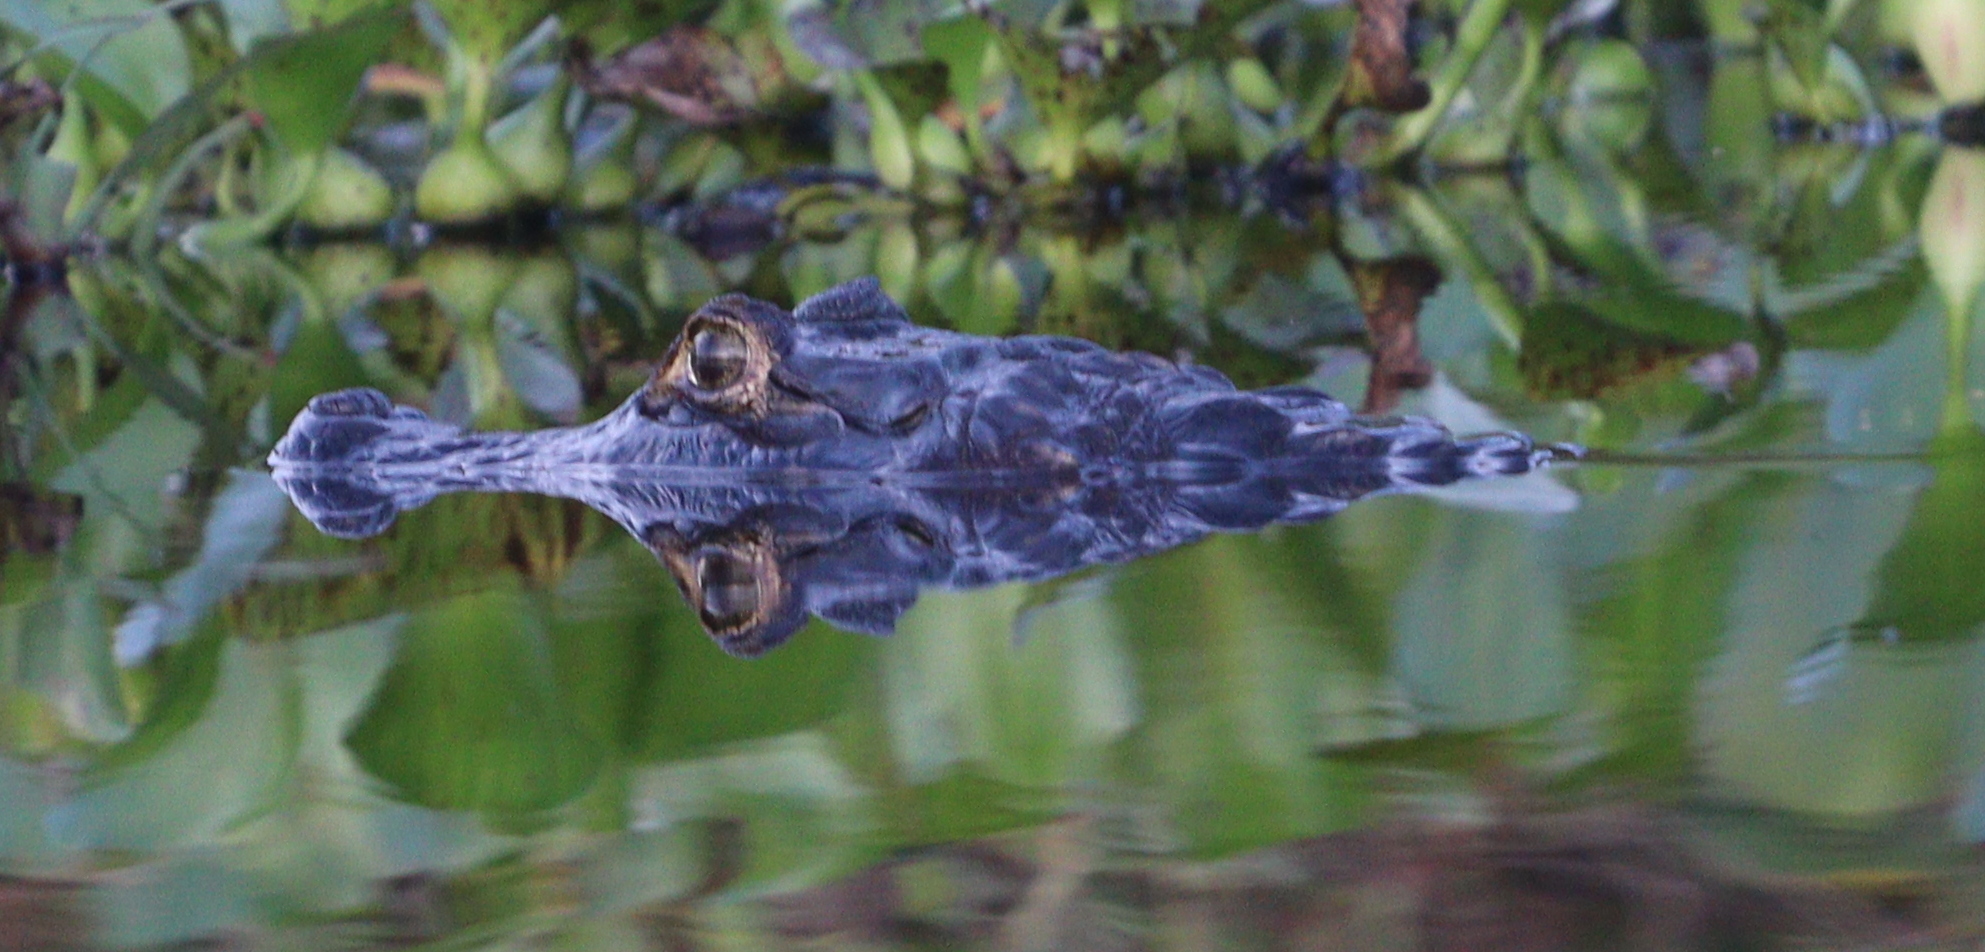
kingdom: Animalia
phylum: Chordata
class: Crocodylia
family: Alligatoridae
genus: Caiman
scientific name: Caiman yacare
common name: Yacare caiman
